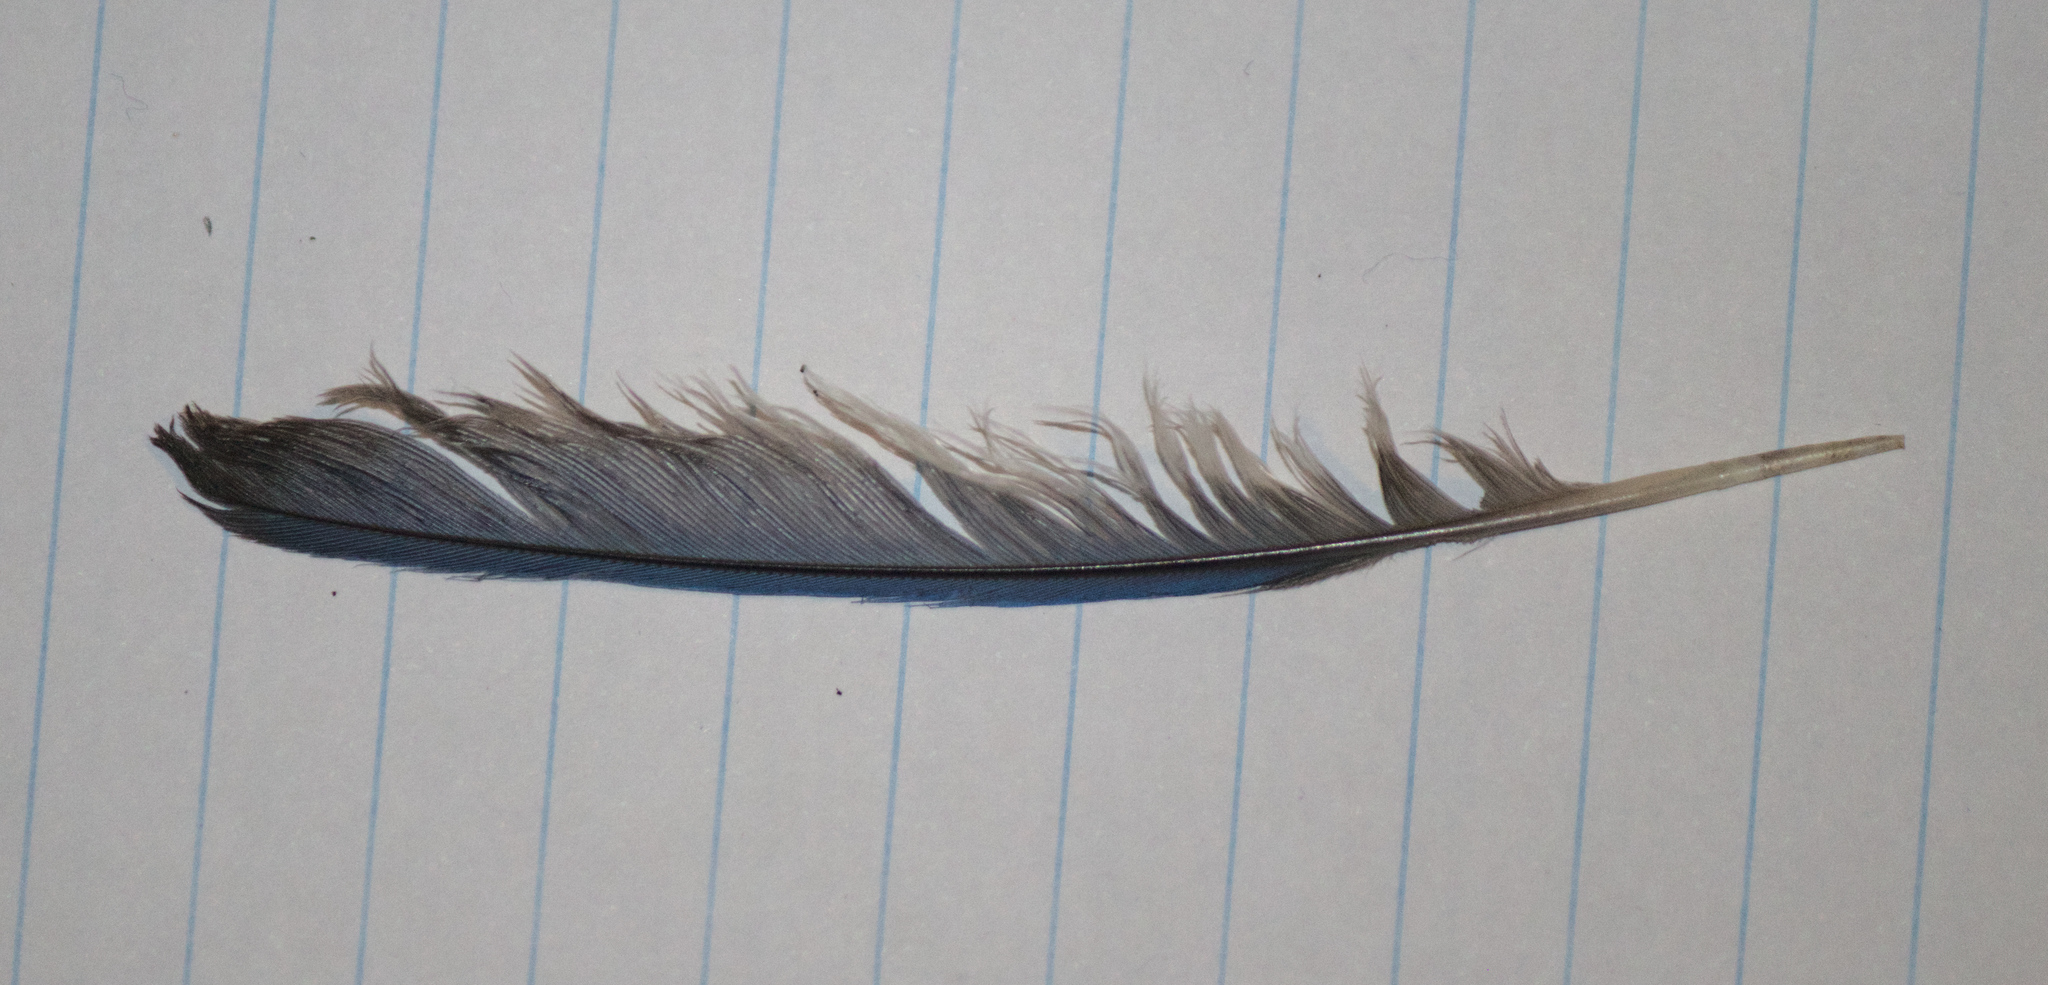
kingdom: Animalia
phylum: Chordata
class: Aves
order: Passeriformes
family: Turdidae
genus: Sialia
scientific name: Sialia sialis
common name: Eastern bluebird
